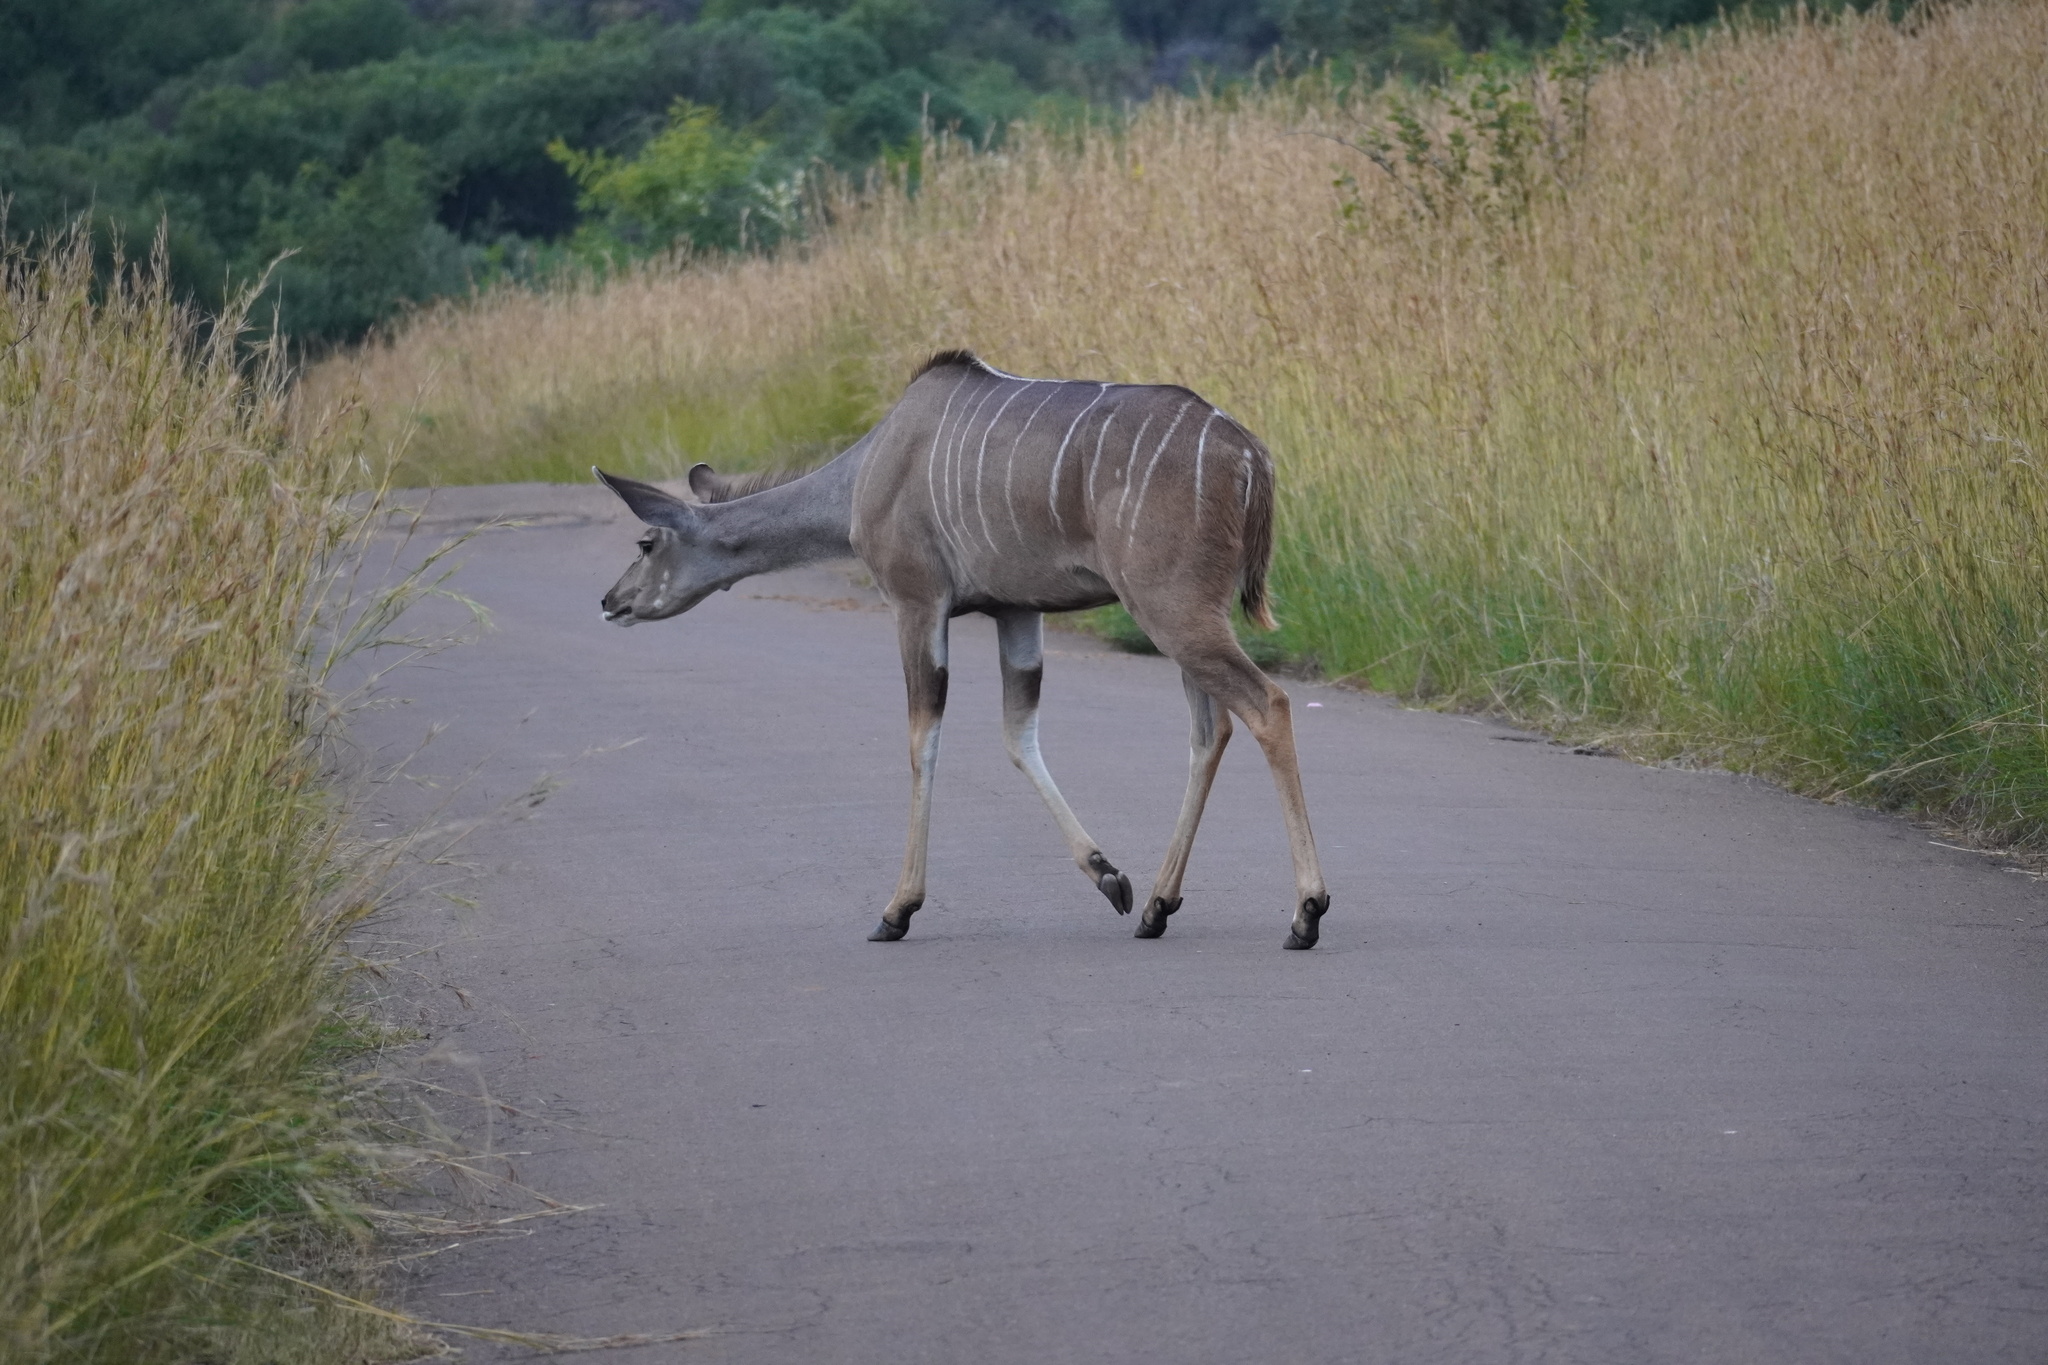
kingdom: Animalia
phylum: Chordata
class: Mammalia
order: Artiodactyla
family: Bovidae
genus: Tragelaphus
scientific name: Tragelaphus strepsiceros
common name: Greater kudu
